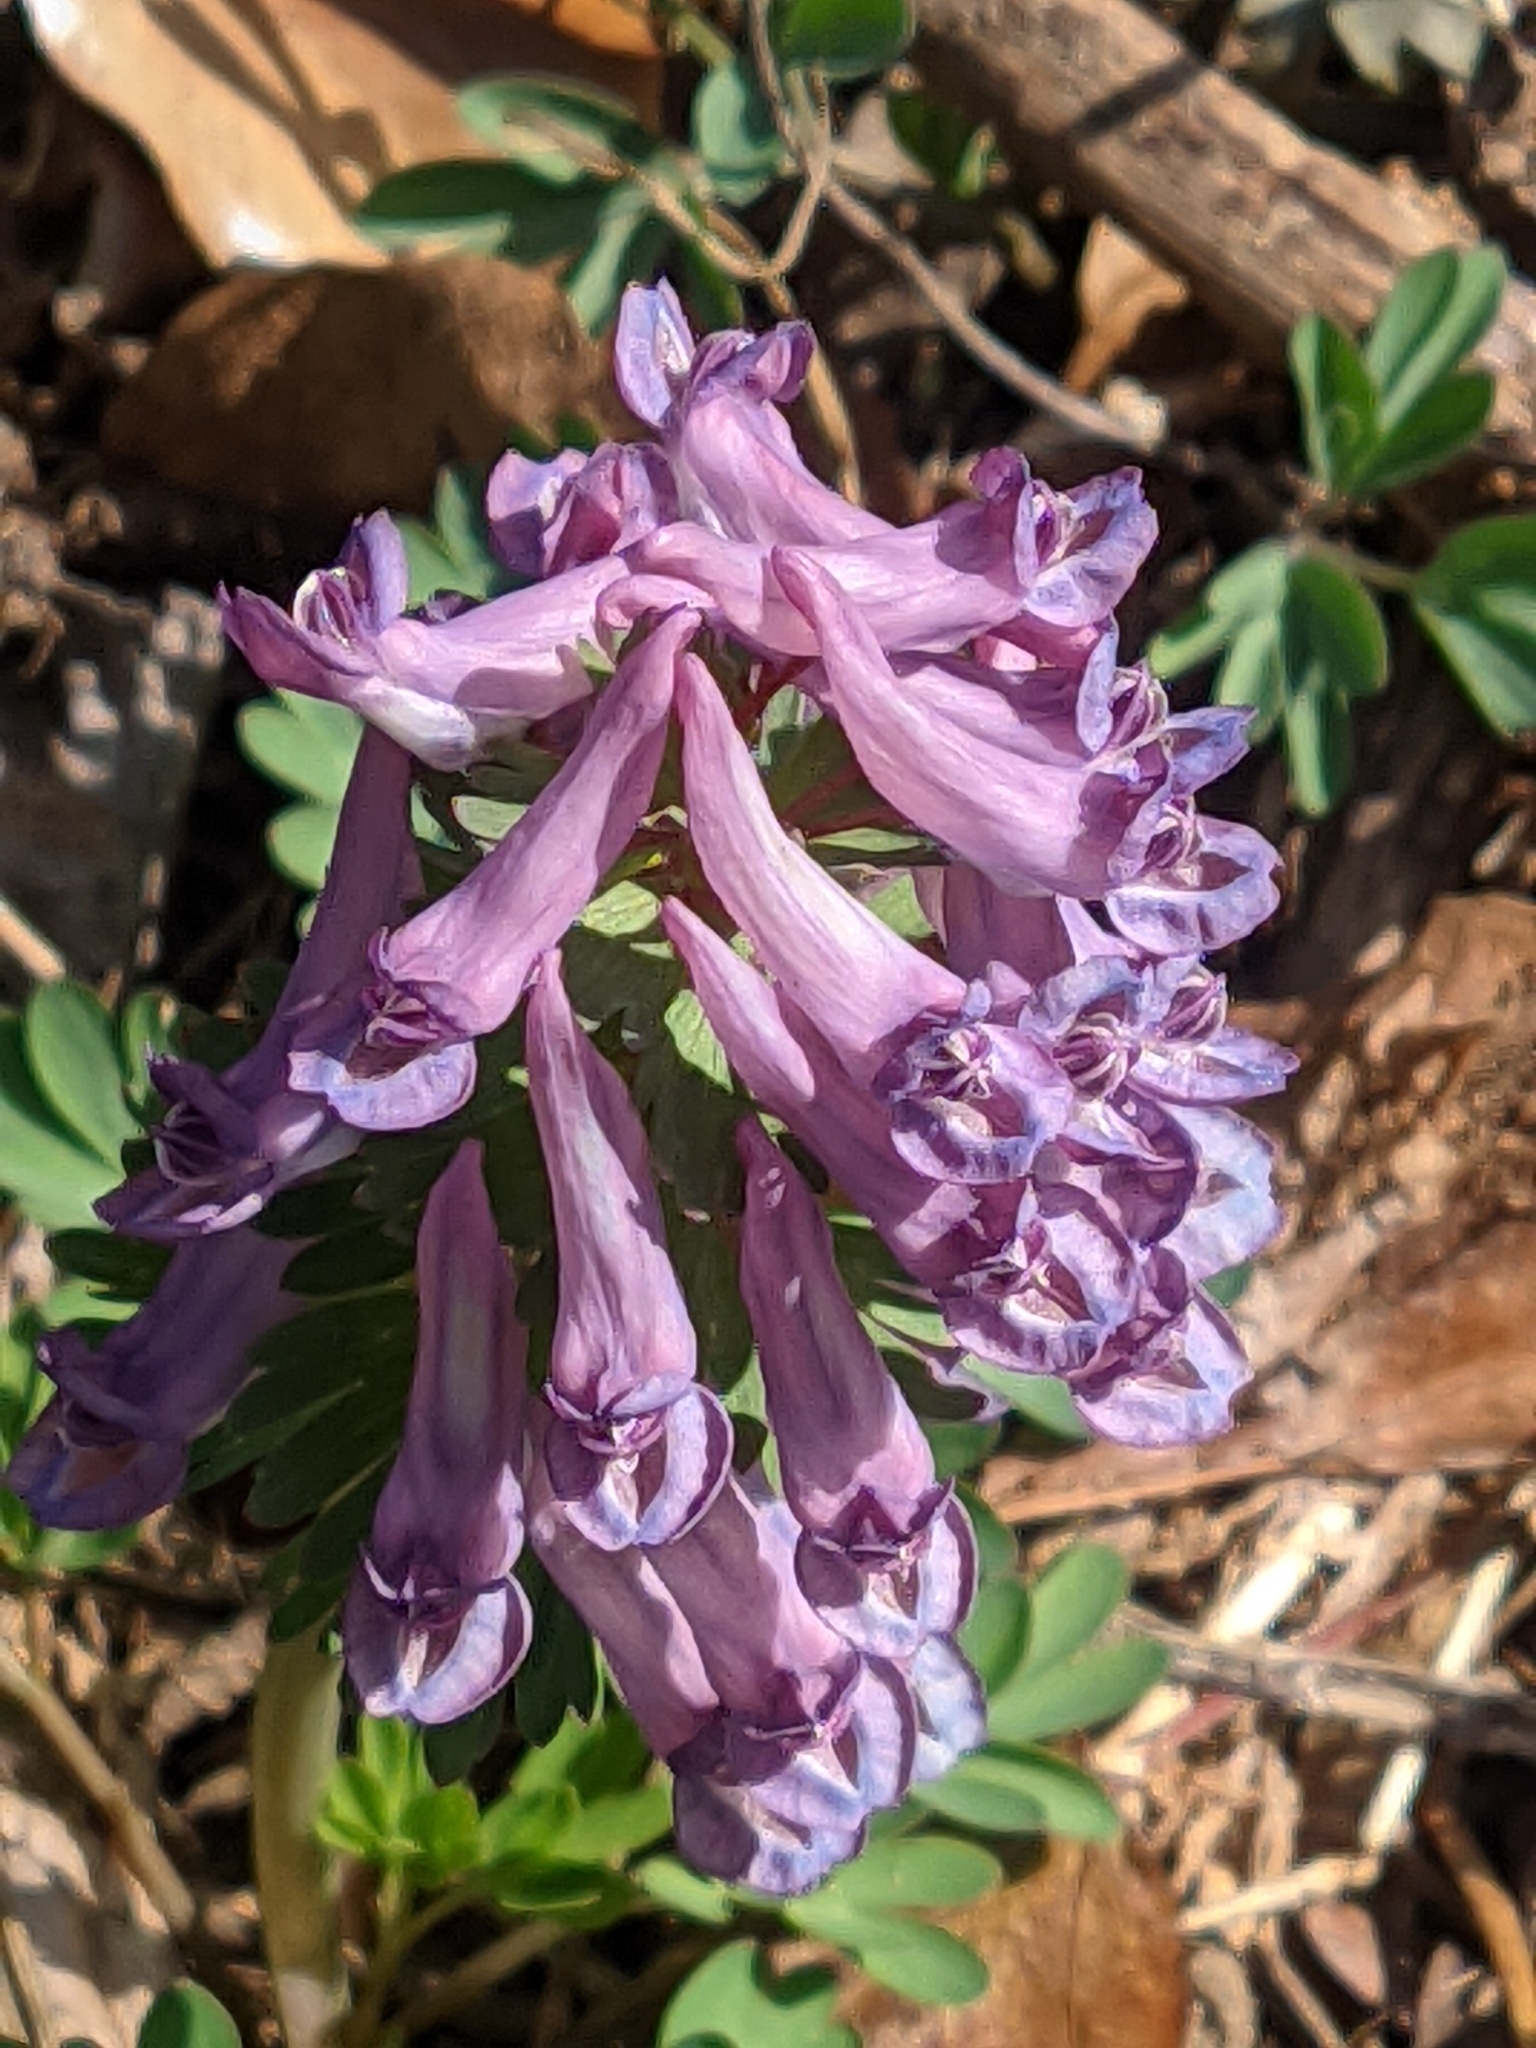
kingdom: Plantae
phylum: Tracheophyta
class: Magnoliopsida
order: Ranunculales
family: Papaveraceae
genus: Corydalis
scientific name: Corydalis solida
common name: Bird-in-a-bush
